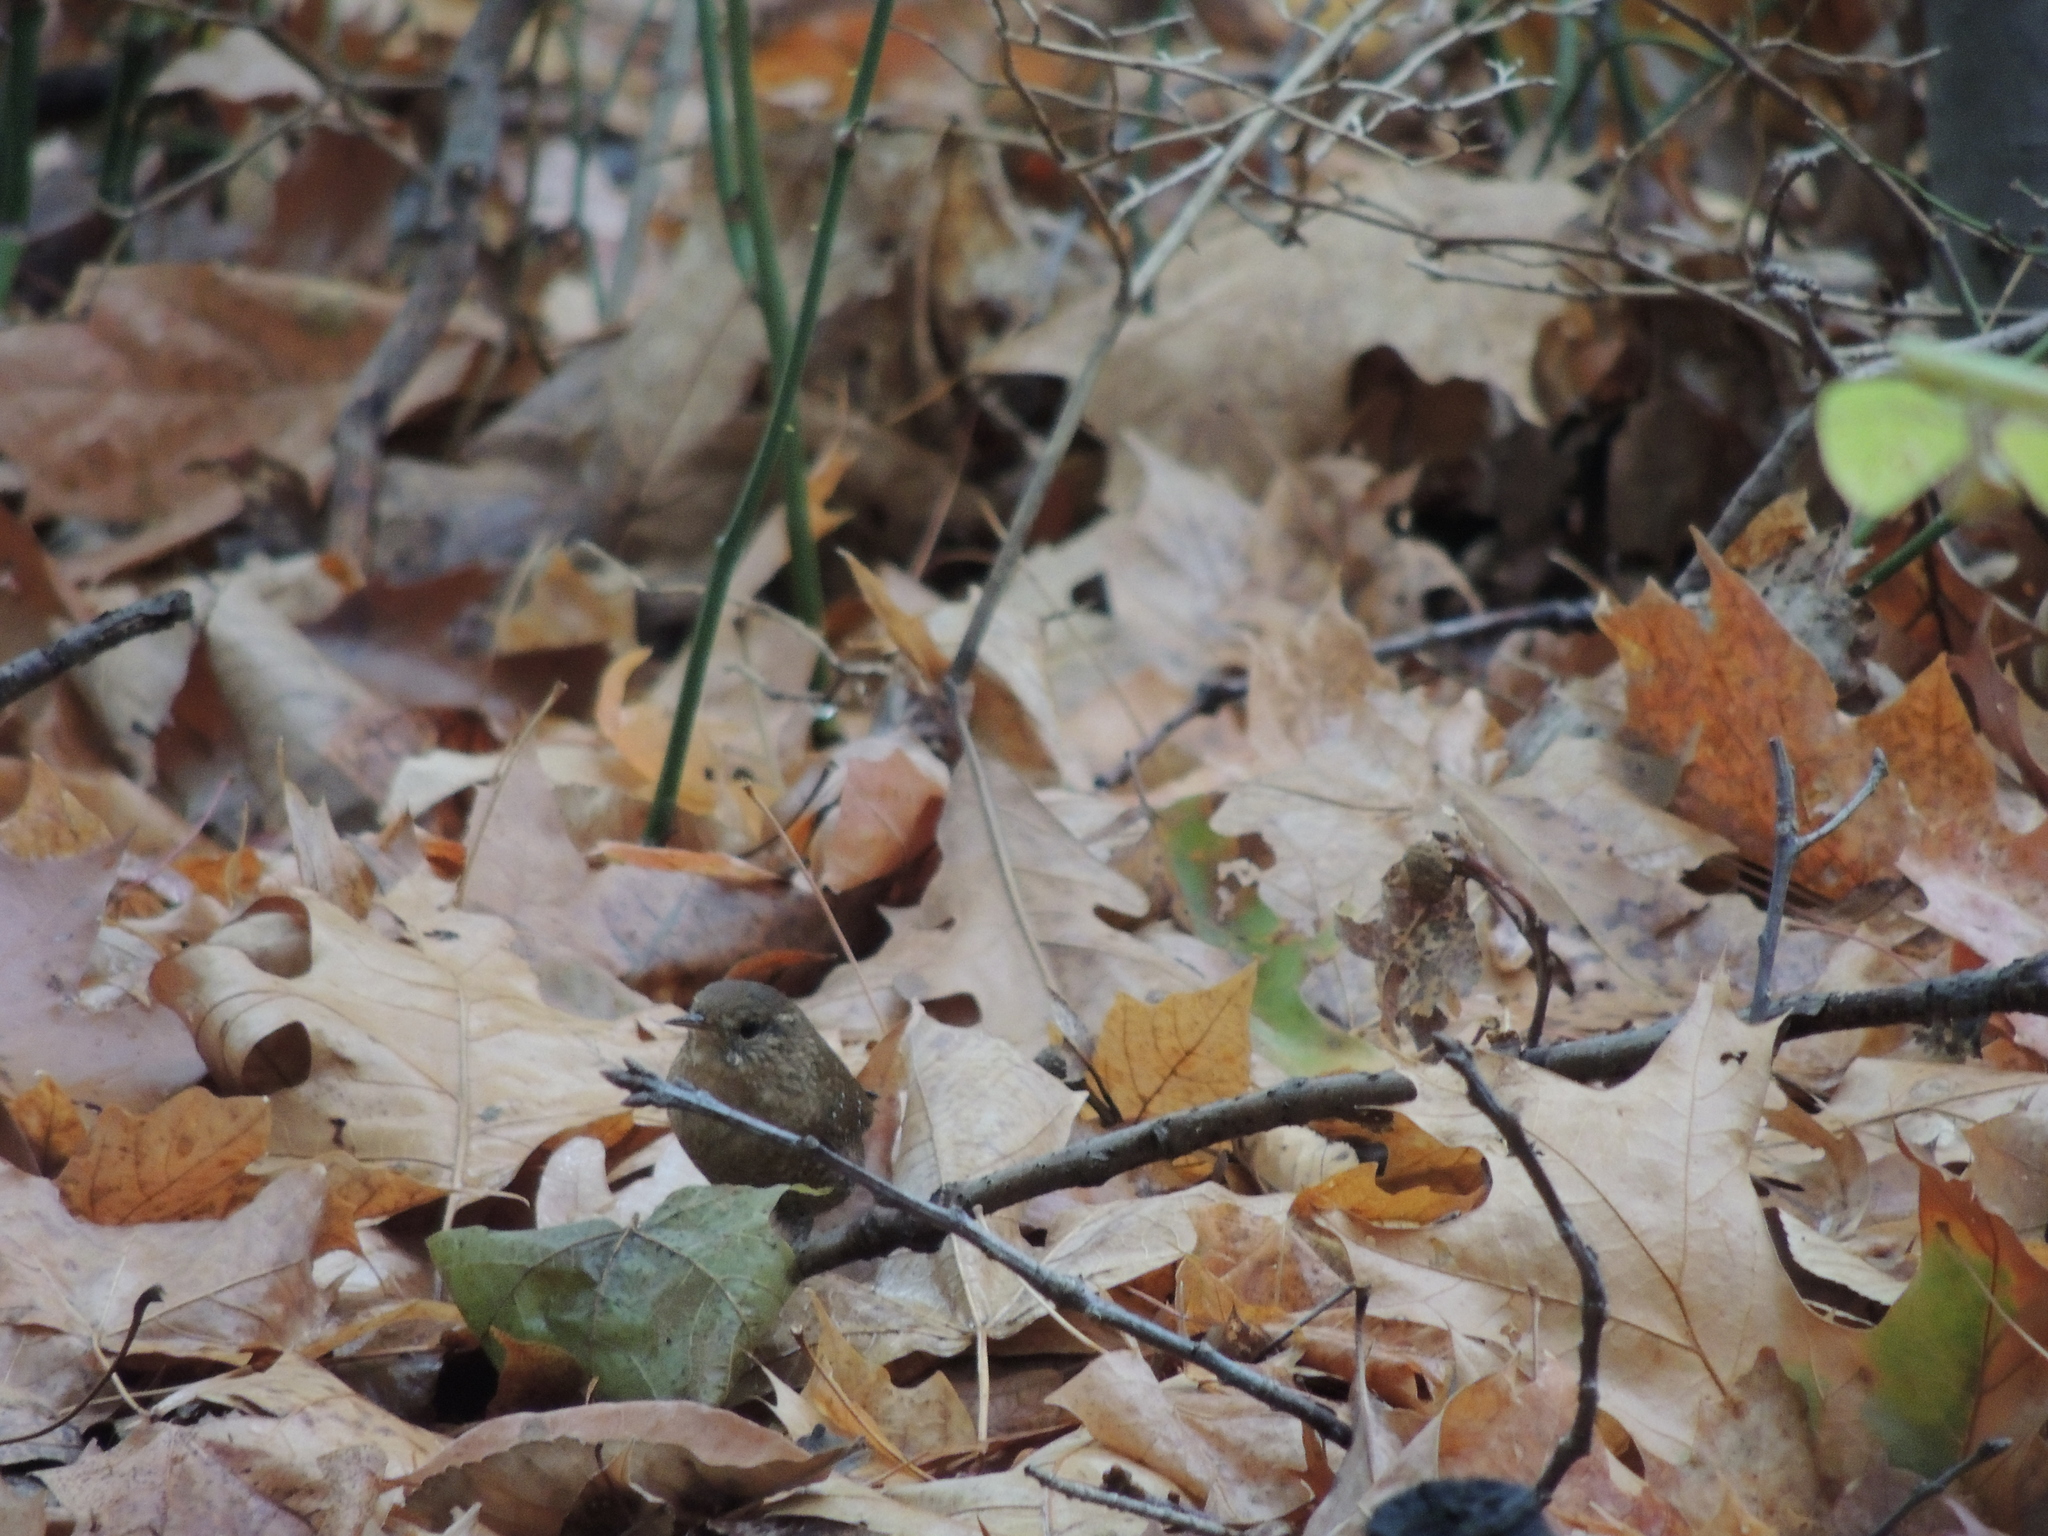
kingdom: Animalia
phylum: Chordata
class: Aves
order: Passeriformes
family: Troglodytidae
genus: Troglodytes
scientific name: Troglodytes hiemalis
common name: Winter wren
